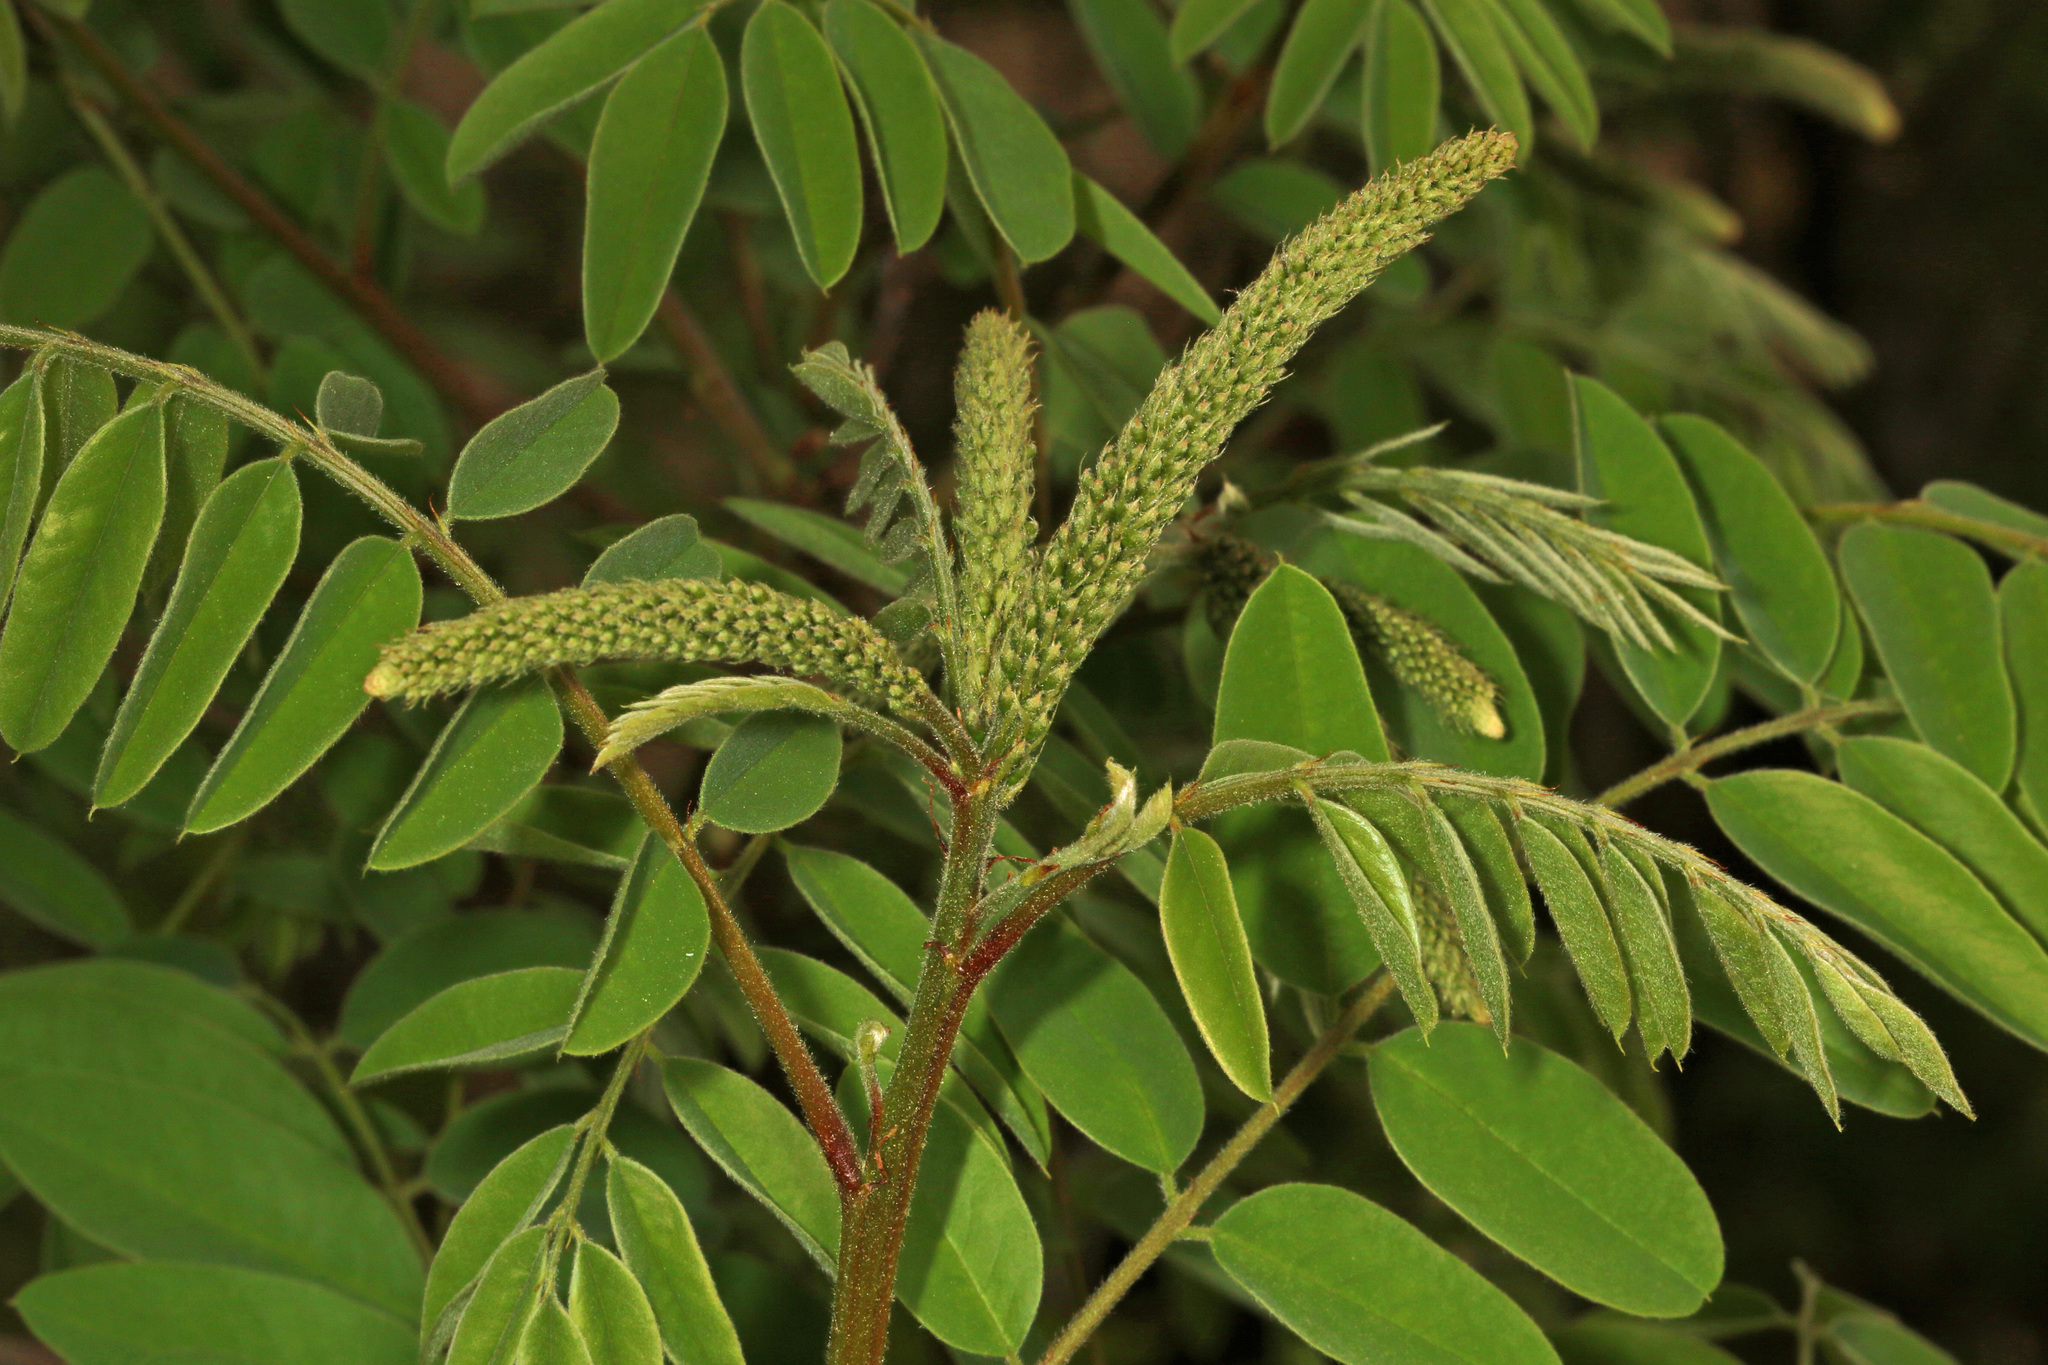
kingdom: Plantae
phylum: Tracheophyta
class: Magnoliopsida
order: Fabales
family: Fabaceae
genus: Amorpha
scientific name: Amorpha fruticosa
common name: False indigo
